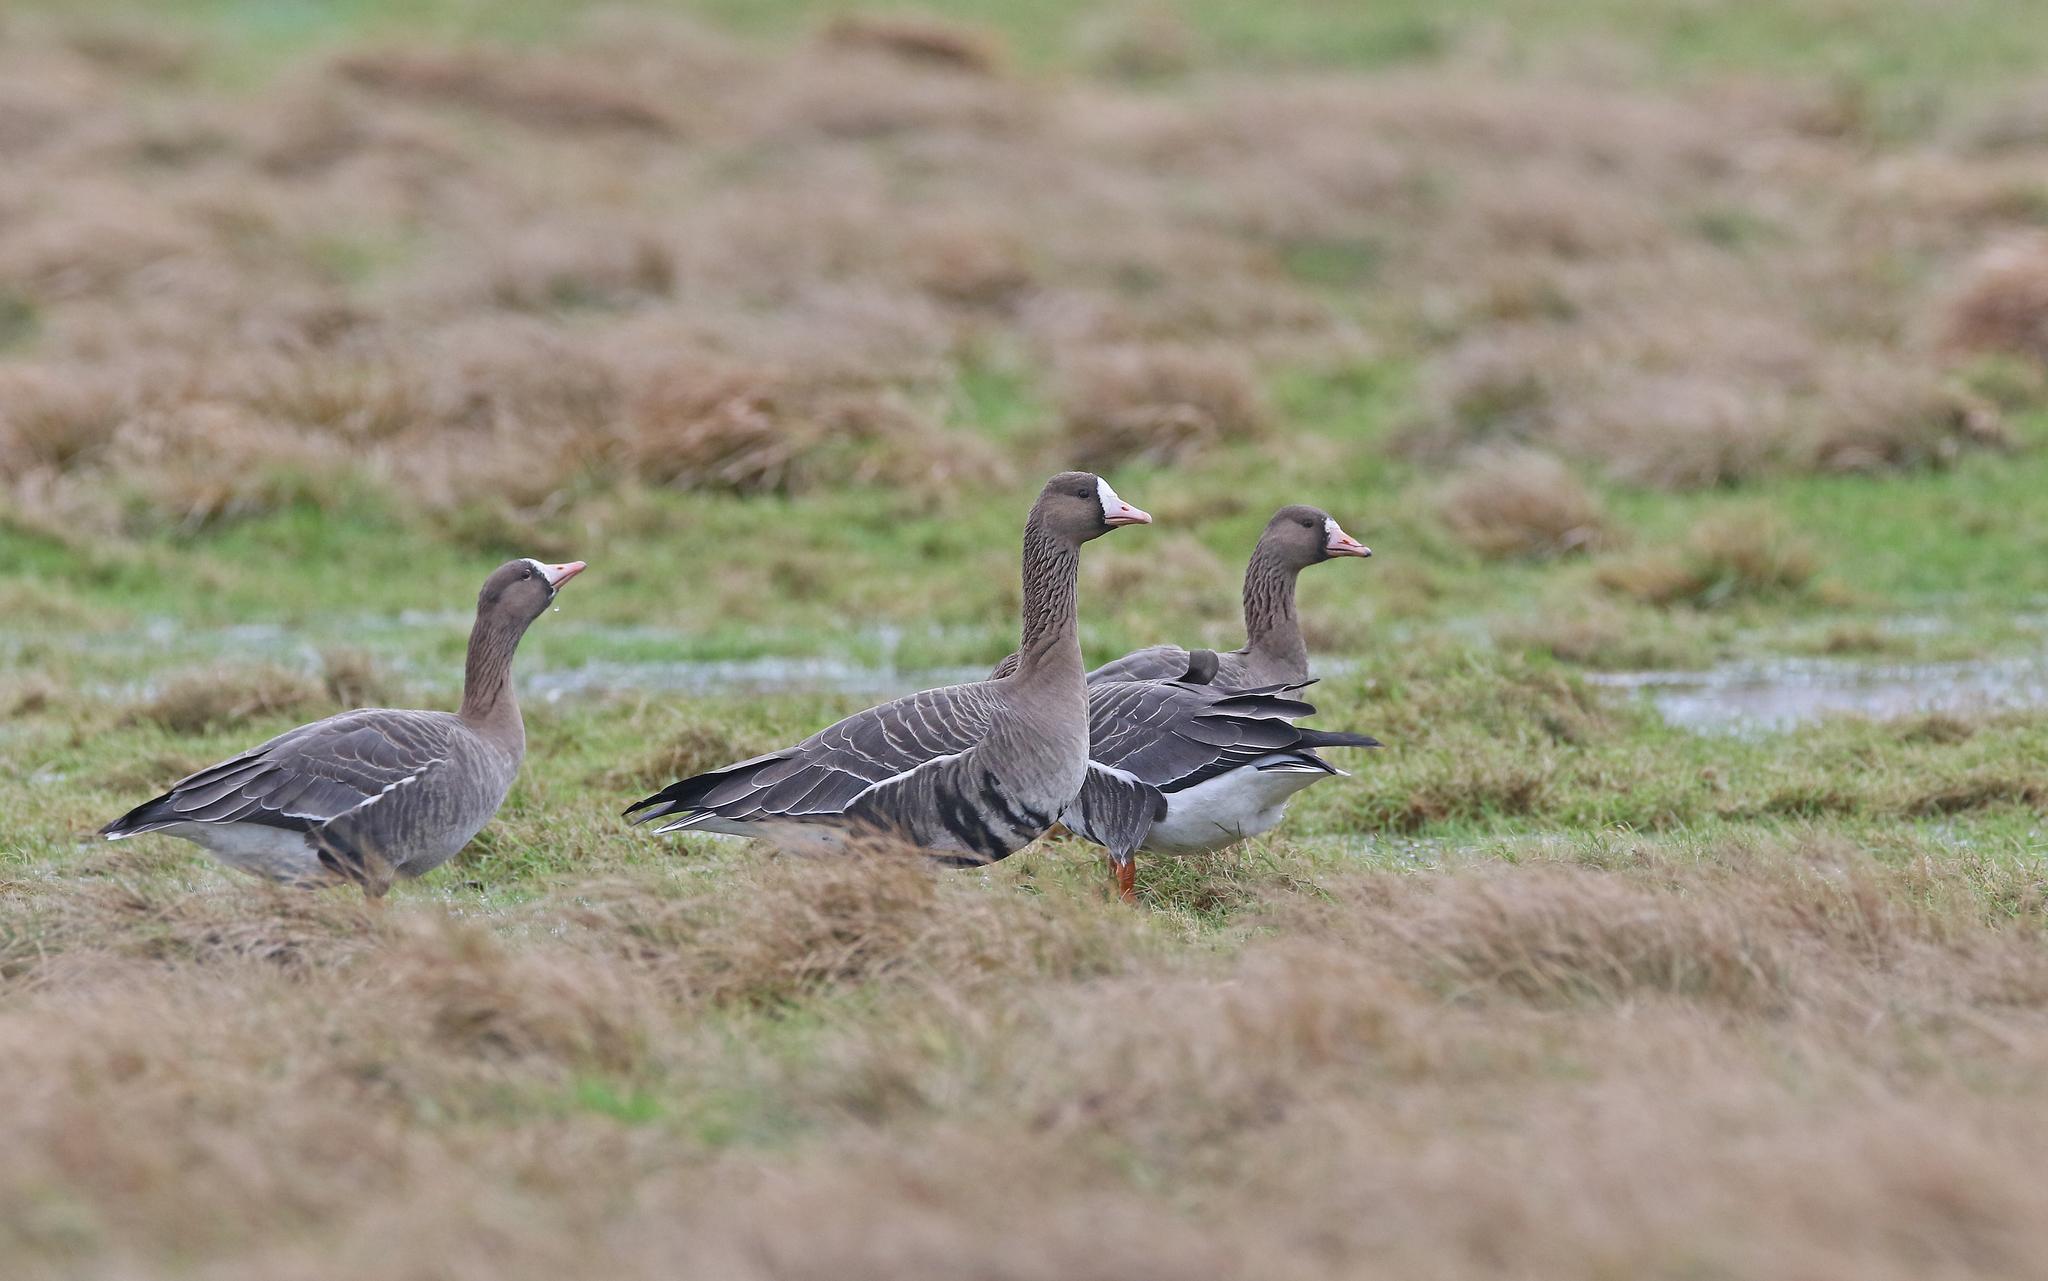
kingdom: Animalia
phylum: Chordata
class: Aves
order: Anseriformes
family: Anatidae
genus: Anser
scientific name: Anser albifrons
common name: Greater white-fronted goose
